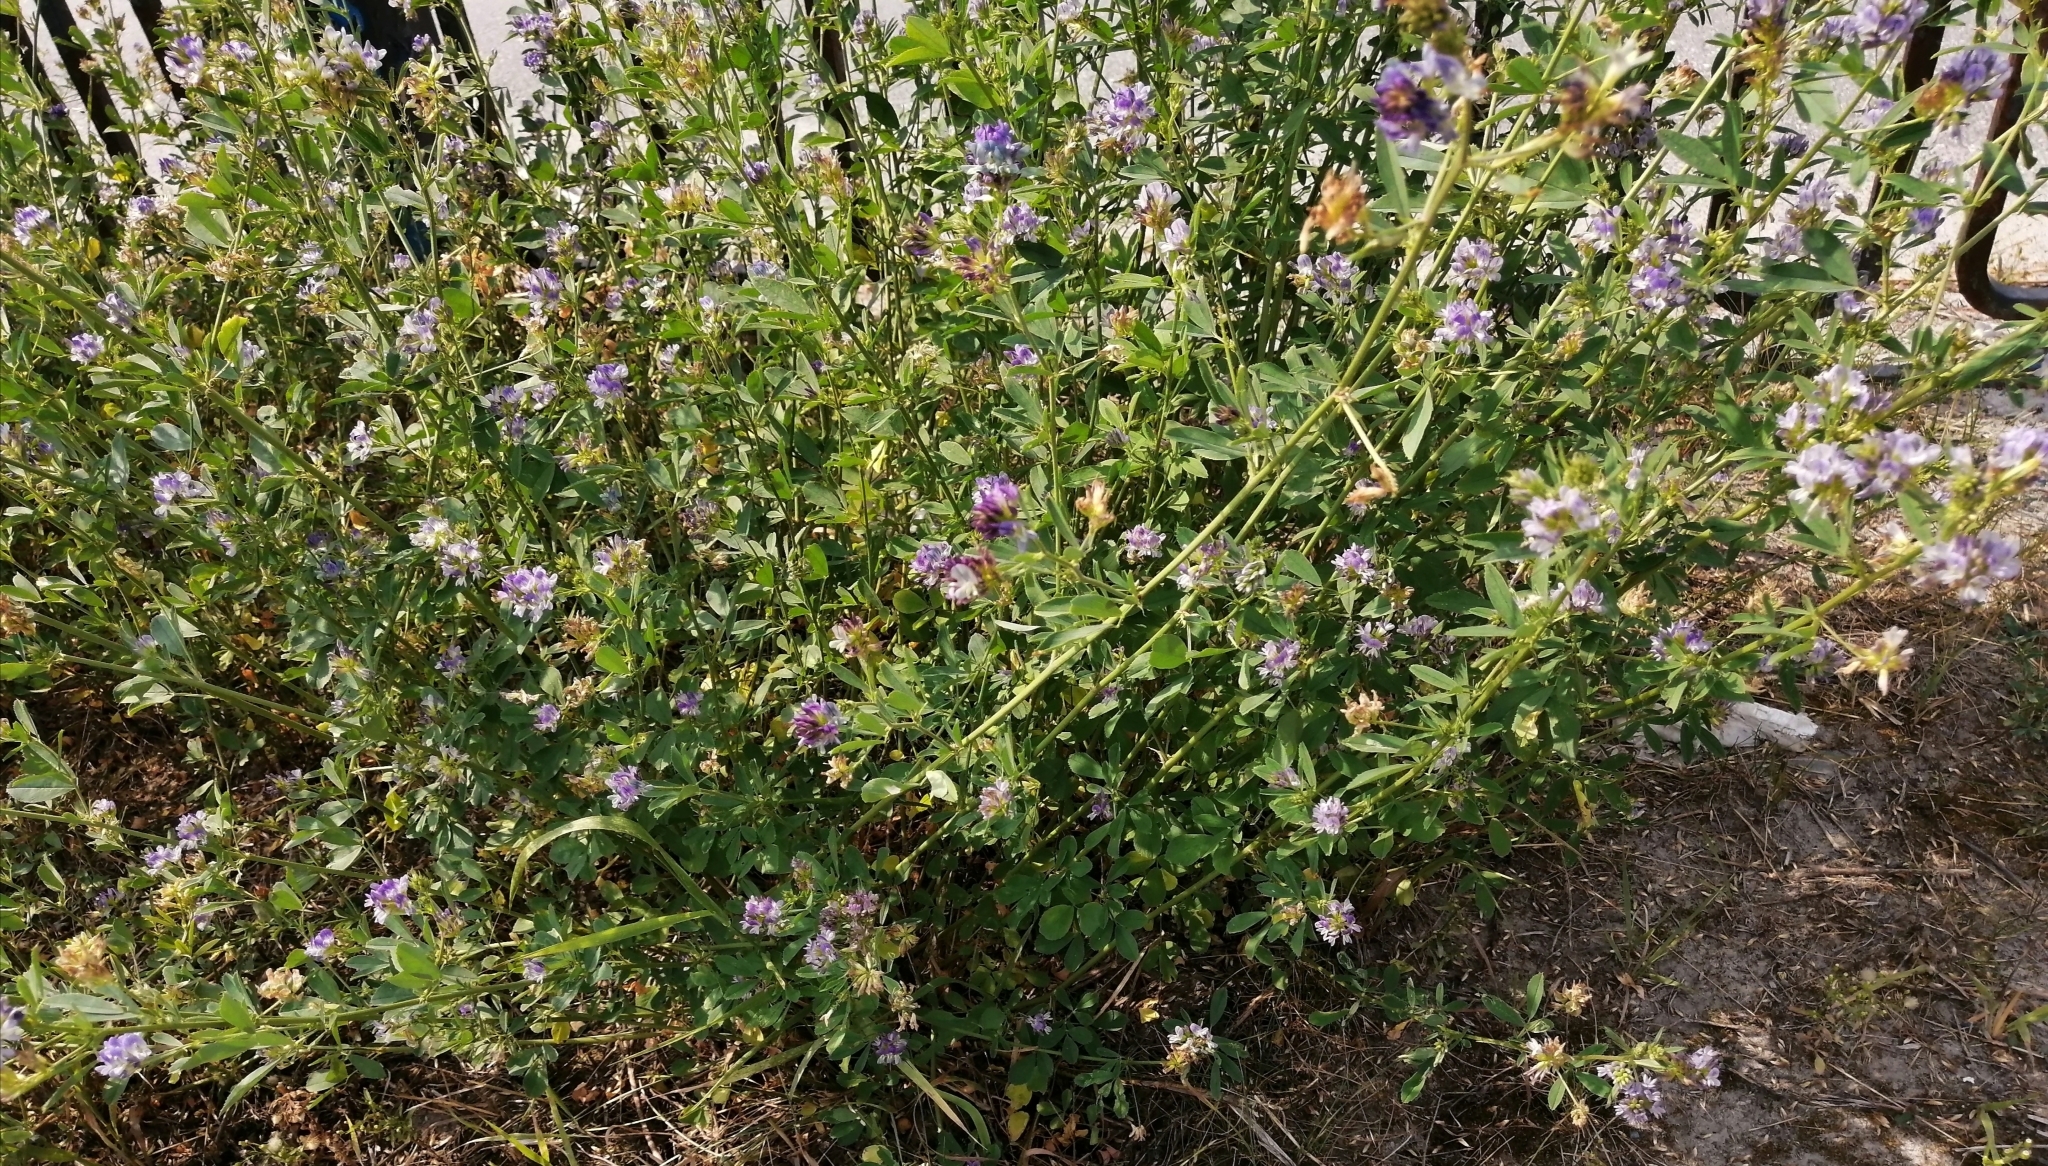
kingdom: Plantae
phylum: Tracheophyta
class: Magnoliopsida
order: Fabales
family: Fabaceae
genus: Medicago
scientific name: Medicago varia
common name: Sand lucerne
